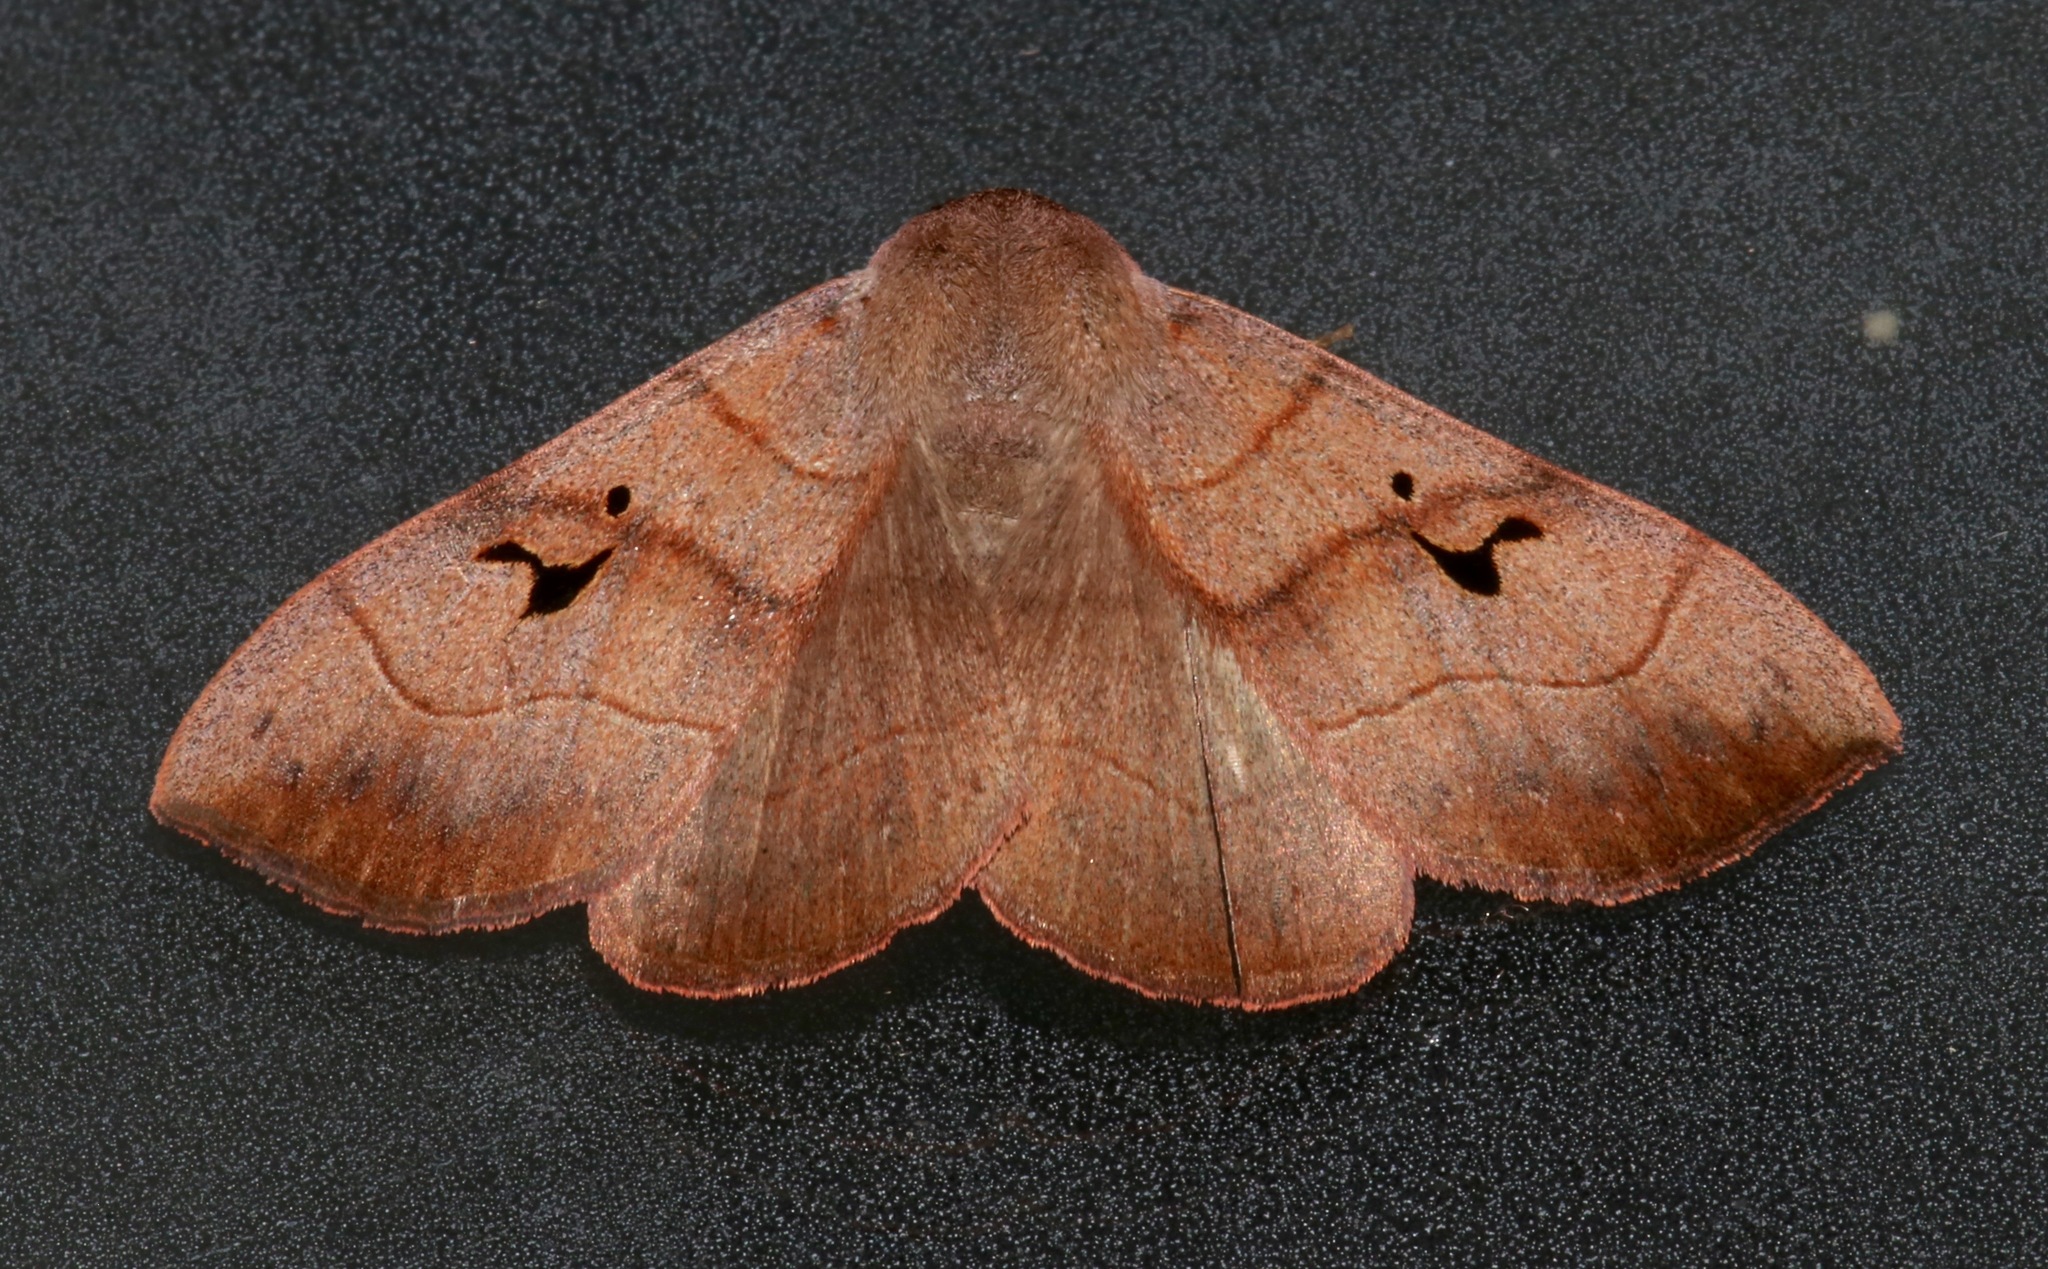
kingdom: Animalia
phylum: Arthropoda
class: Insecta
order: Lepidoptera
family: Erebidae
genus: Panopoda
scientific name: Panopoda carneicosta
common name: Brown panopoda moth
